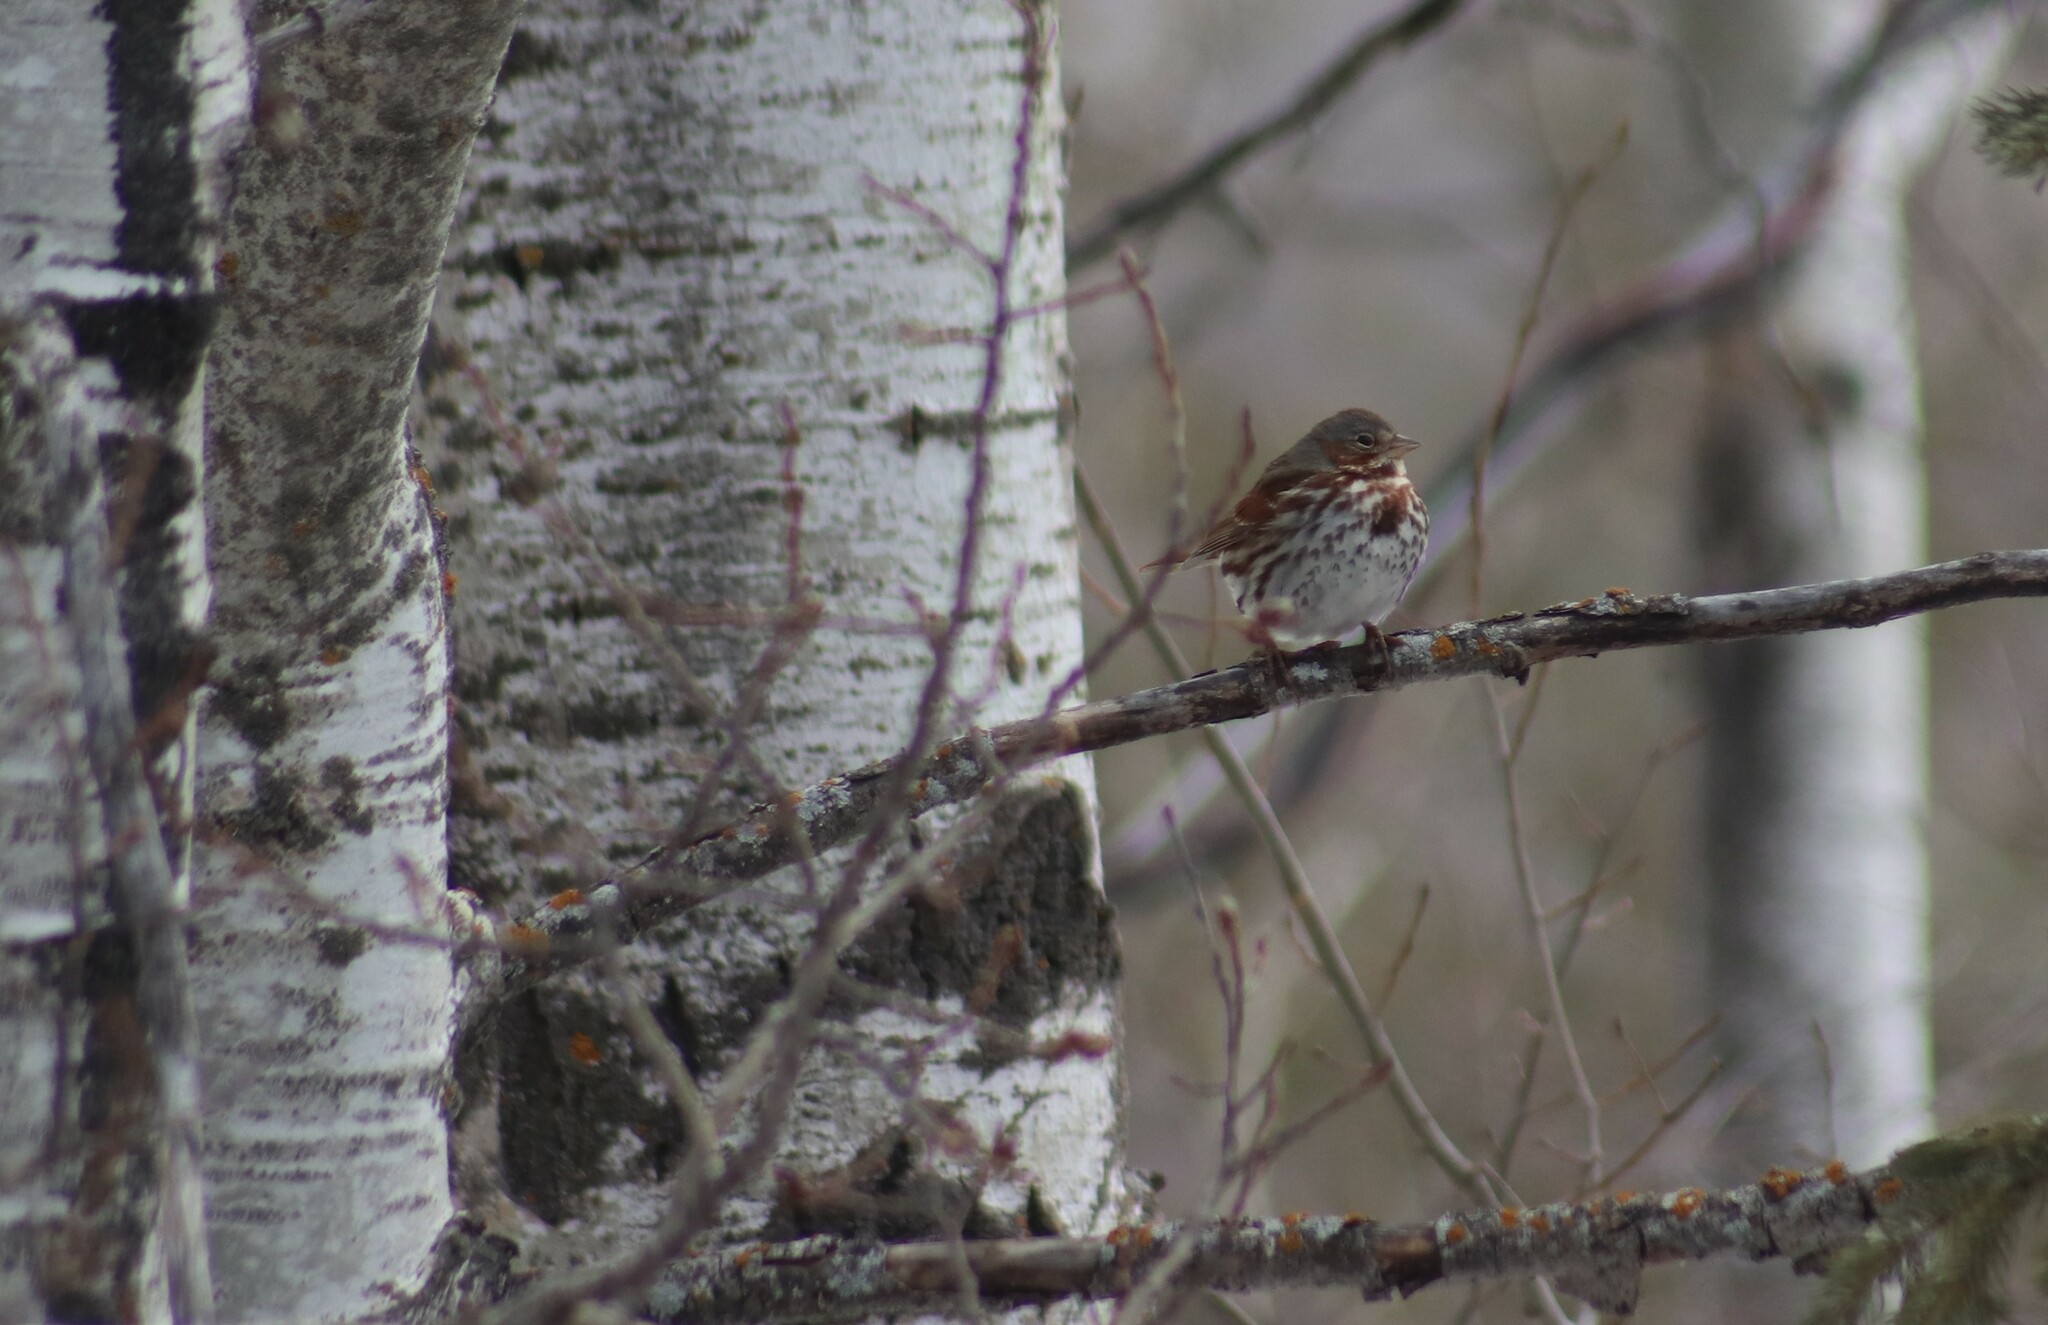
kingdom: Animalia
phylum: Chordata
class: Aves
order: Passeriformes
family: Passerellidae
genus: Passerella
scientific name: Passerella iliaca
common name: Fox sparrow
